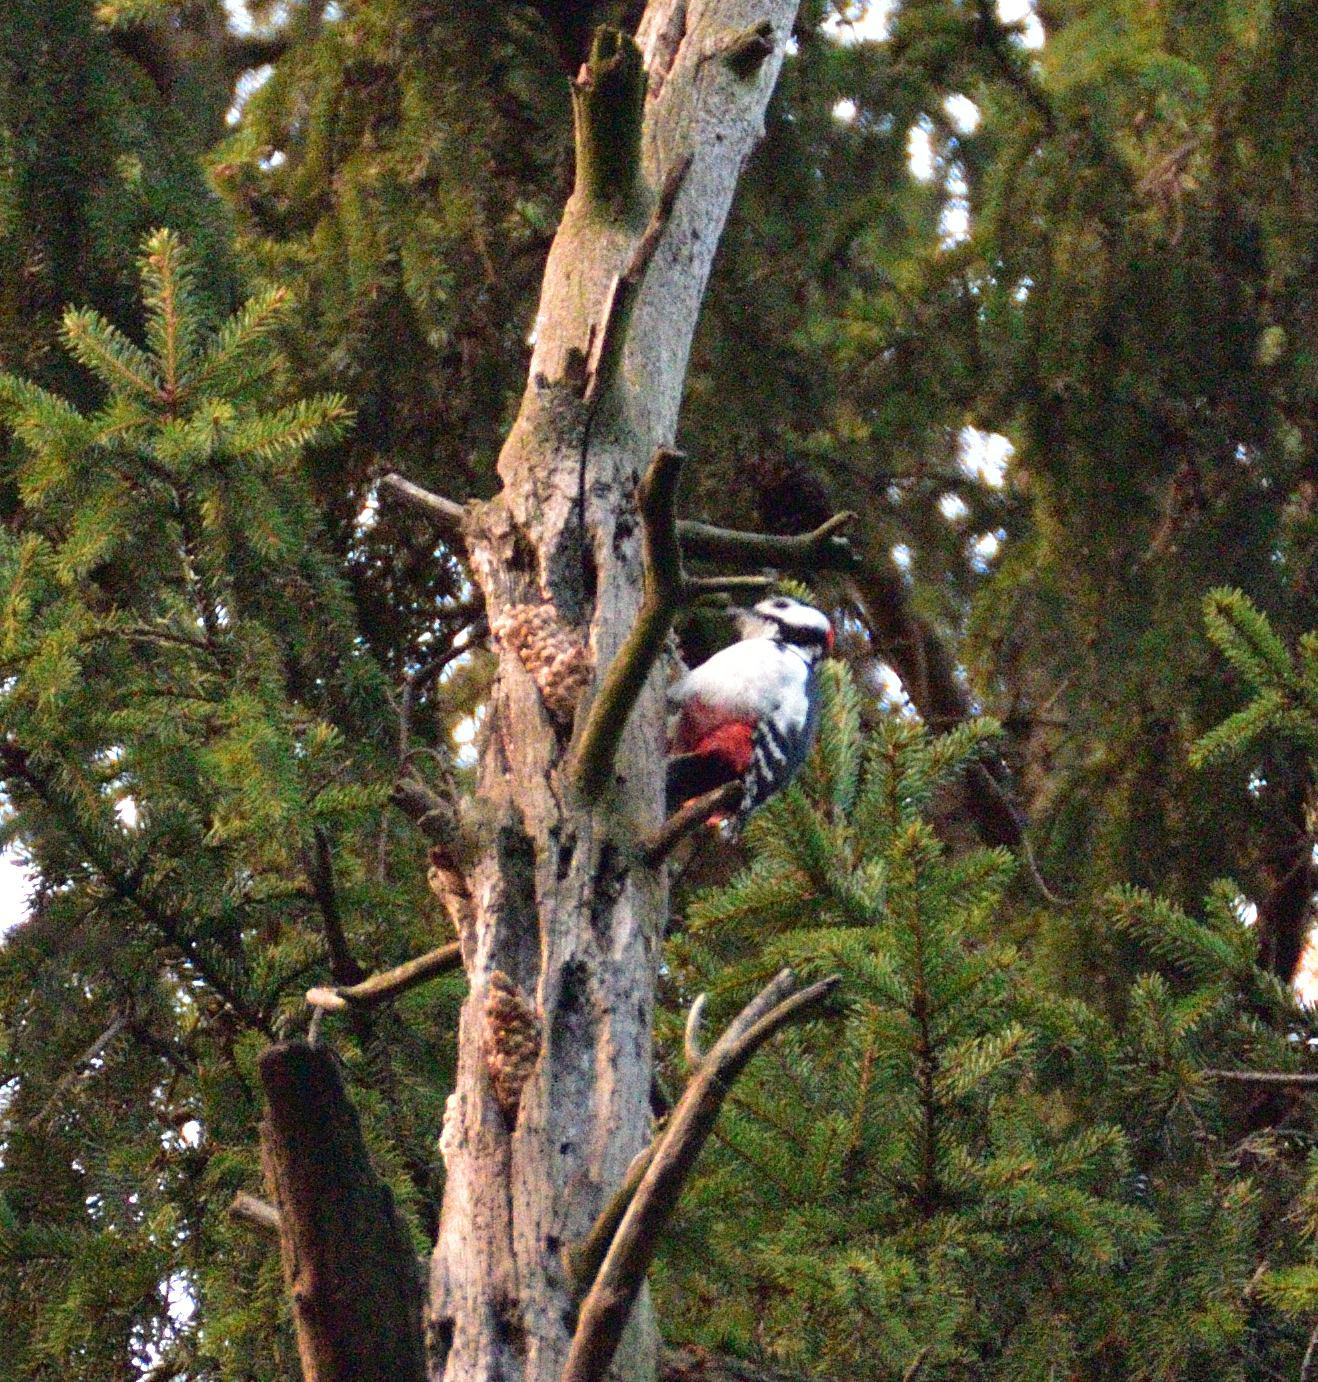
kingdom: Animalia
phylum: Chordata
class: Aves
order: Piciformes
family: Picidae
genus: Dendrocopos
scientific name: Dendrocopos major
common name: Great spotted woodpecker
